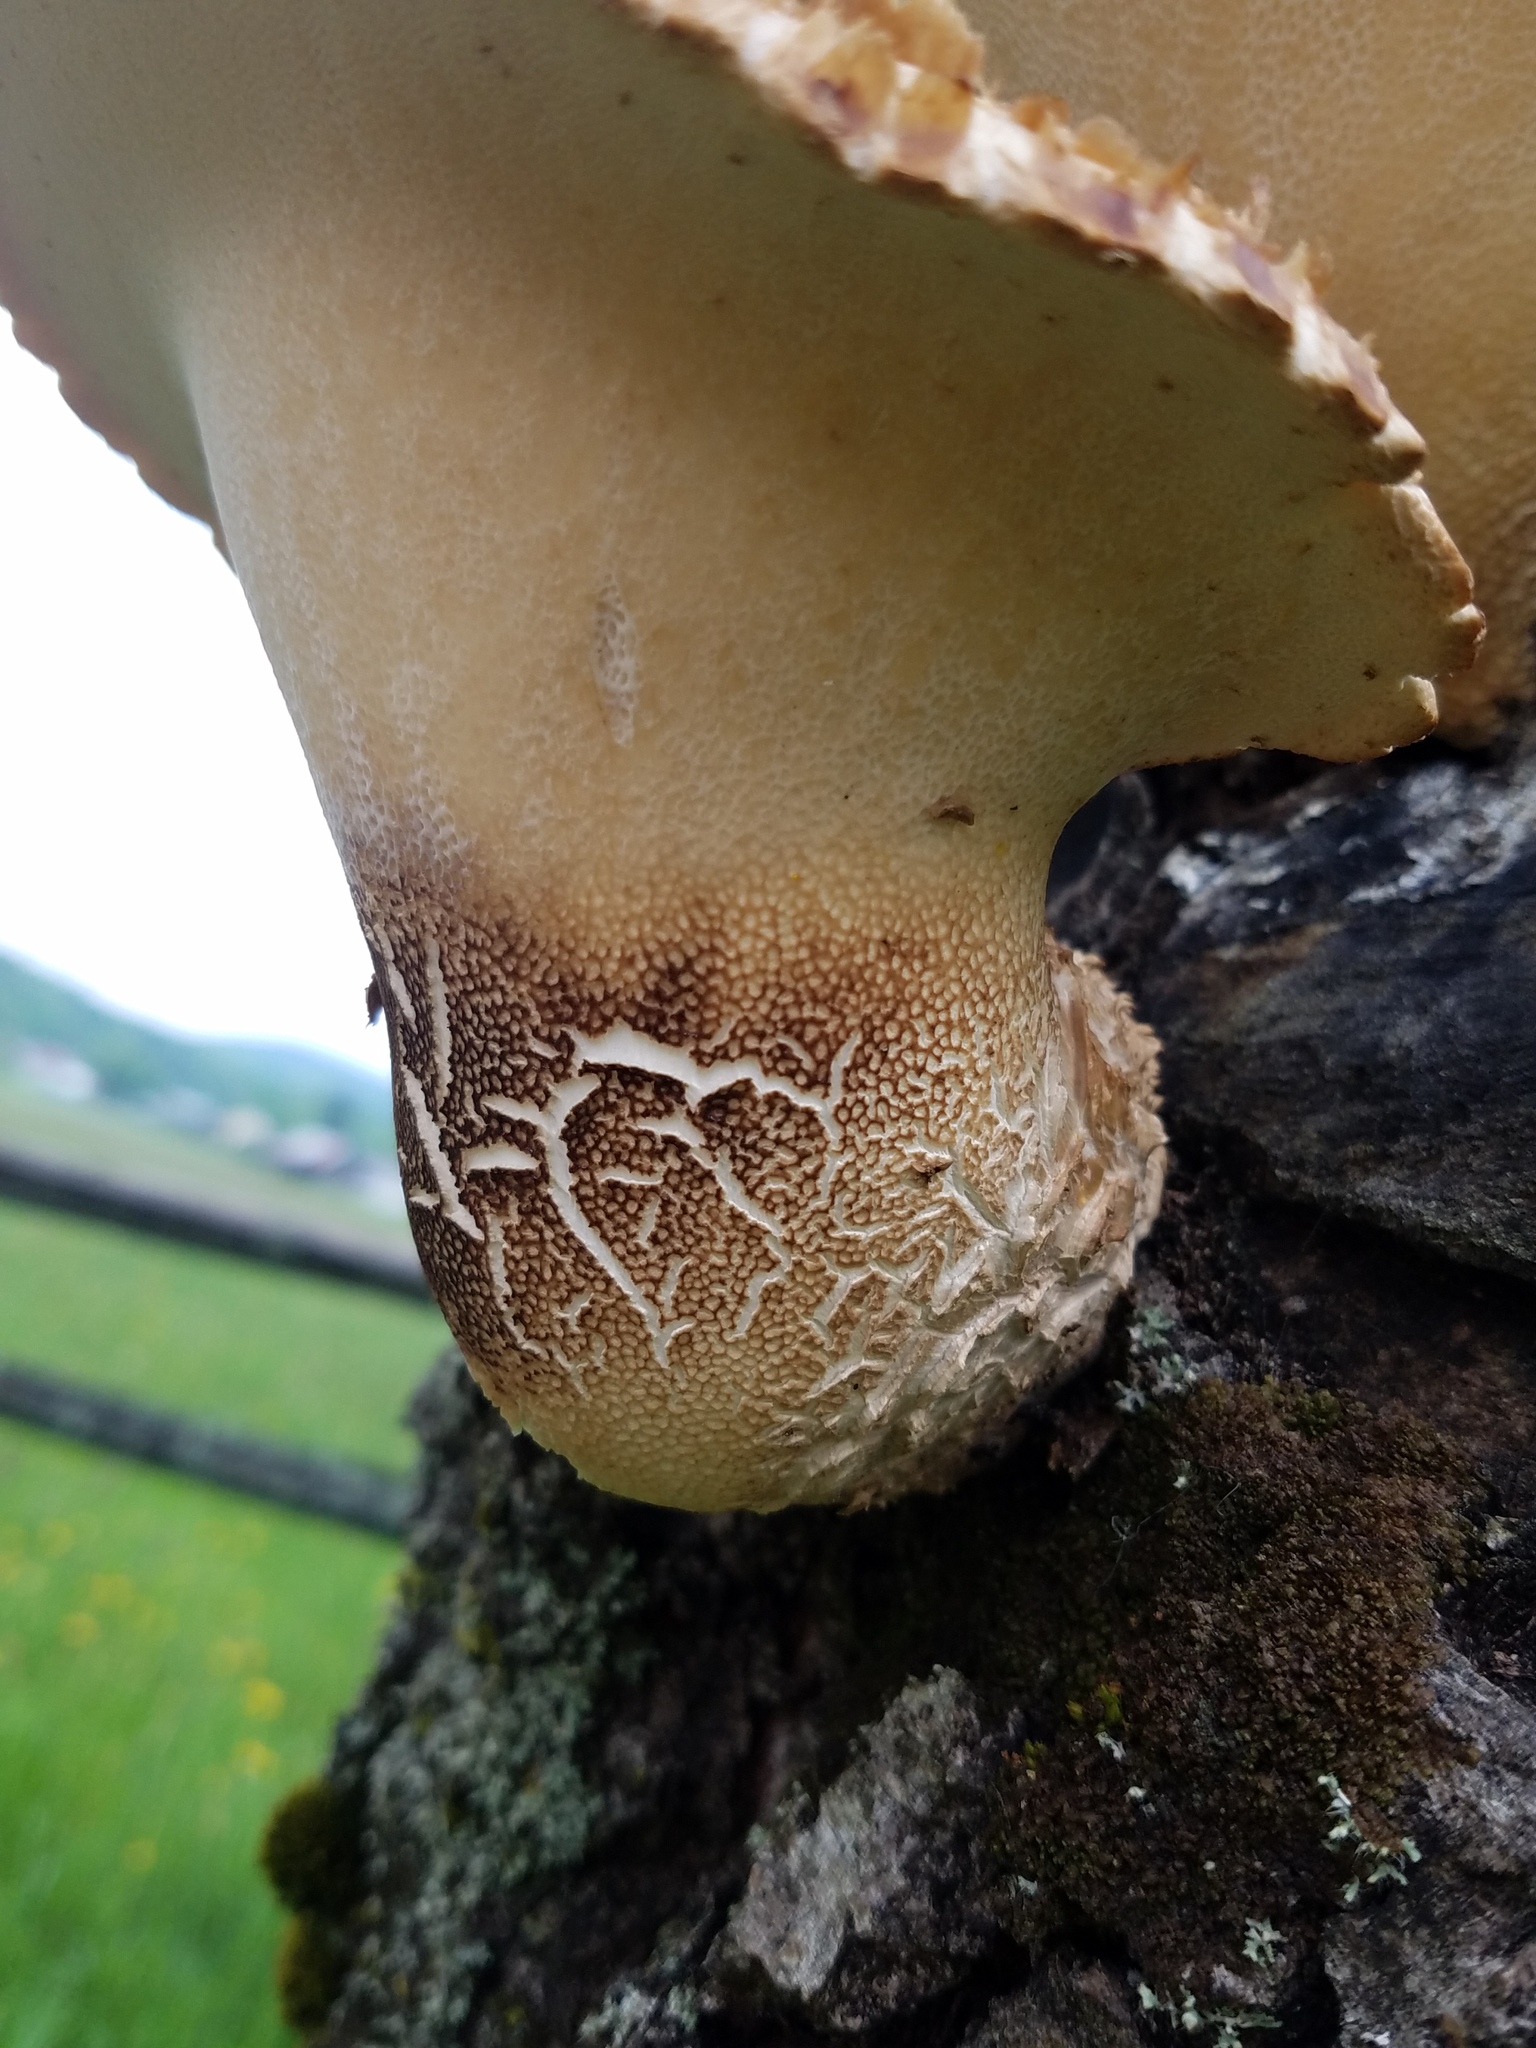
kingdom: Fungi
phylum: Basidiomycota
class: Agaricomycetes
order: Polyporales
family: Polyporaceae
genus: Cerioporus
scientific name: Cerioporus squamosus
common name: Dryad's saddle
